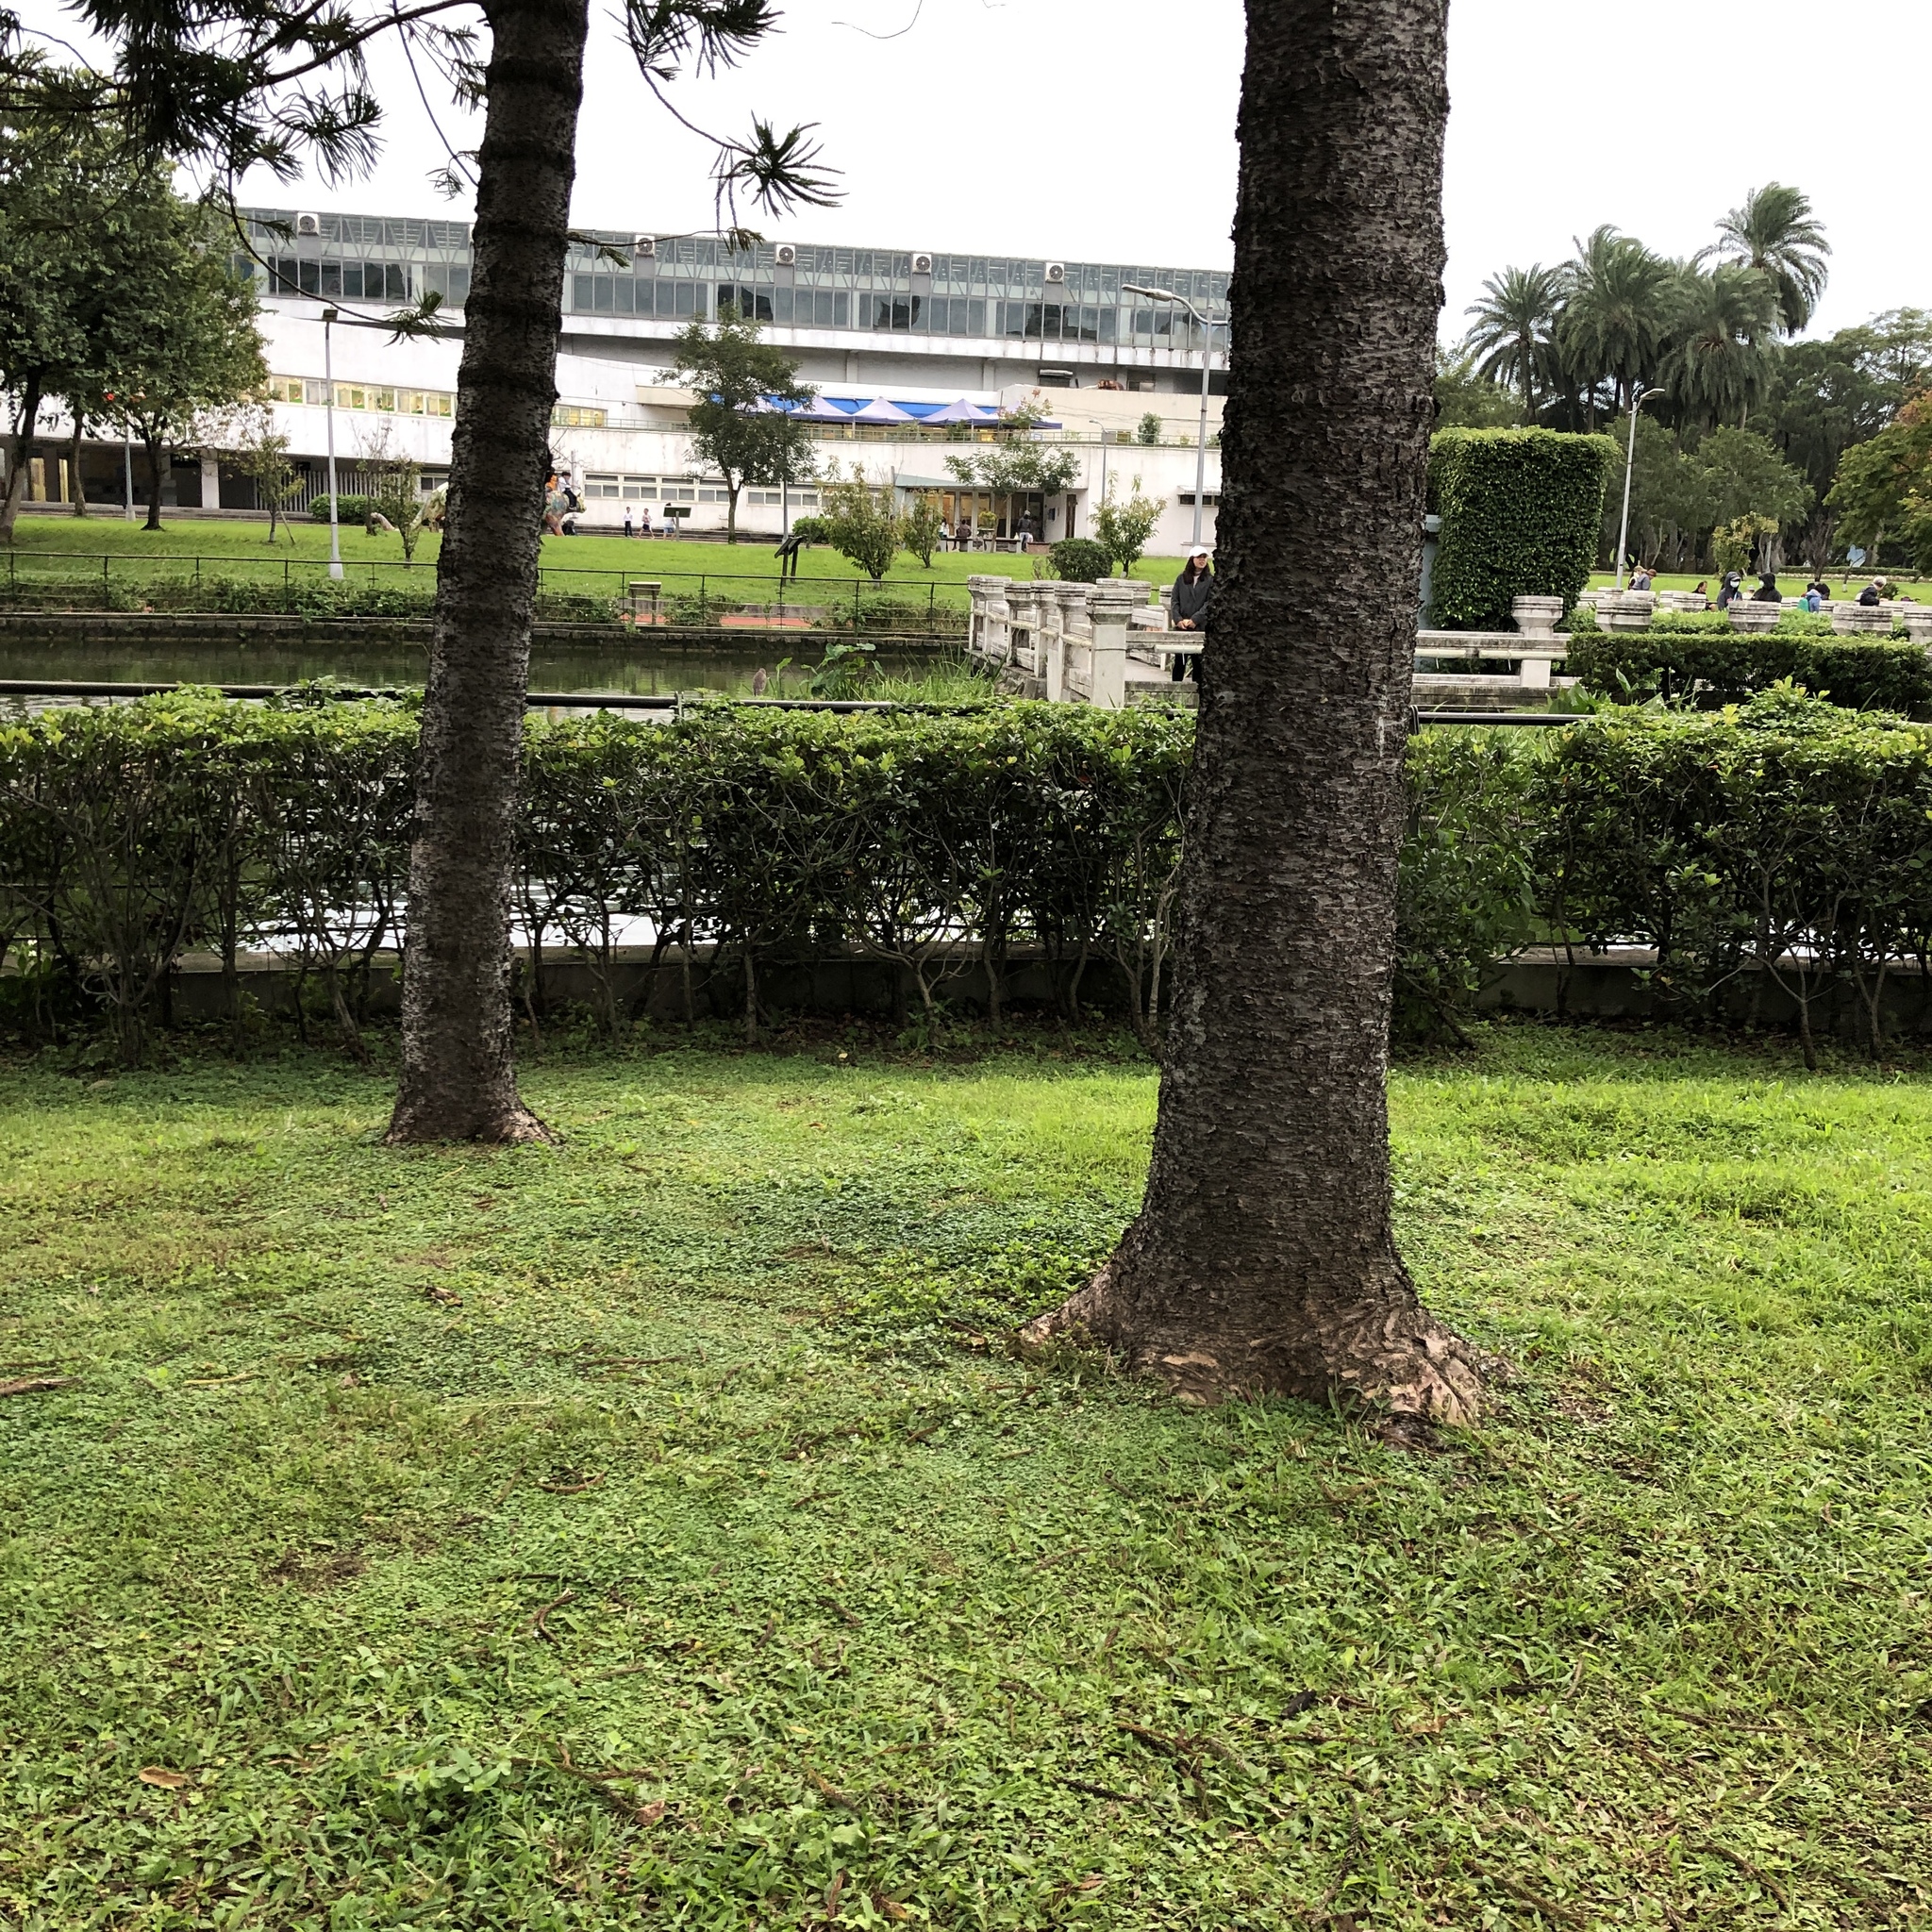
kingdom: Animalia
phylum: Chordata
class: Aves
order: Pelecaniformes
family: Ardeidae
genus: Nycticorax
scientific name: Nycticorax nycticorax
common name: Black-crowned night heron
